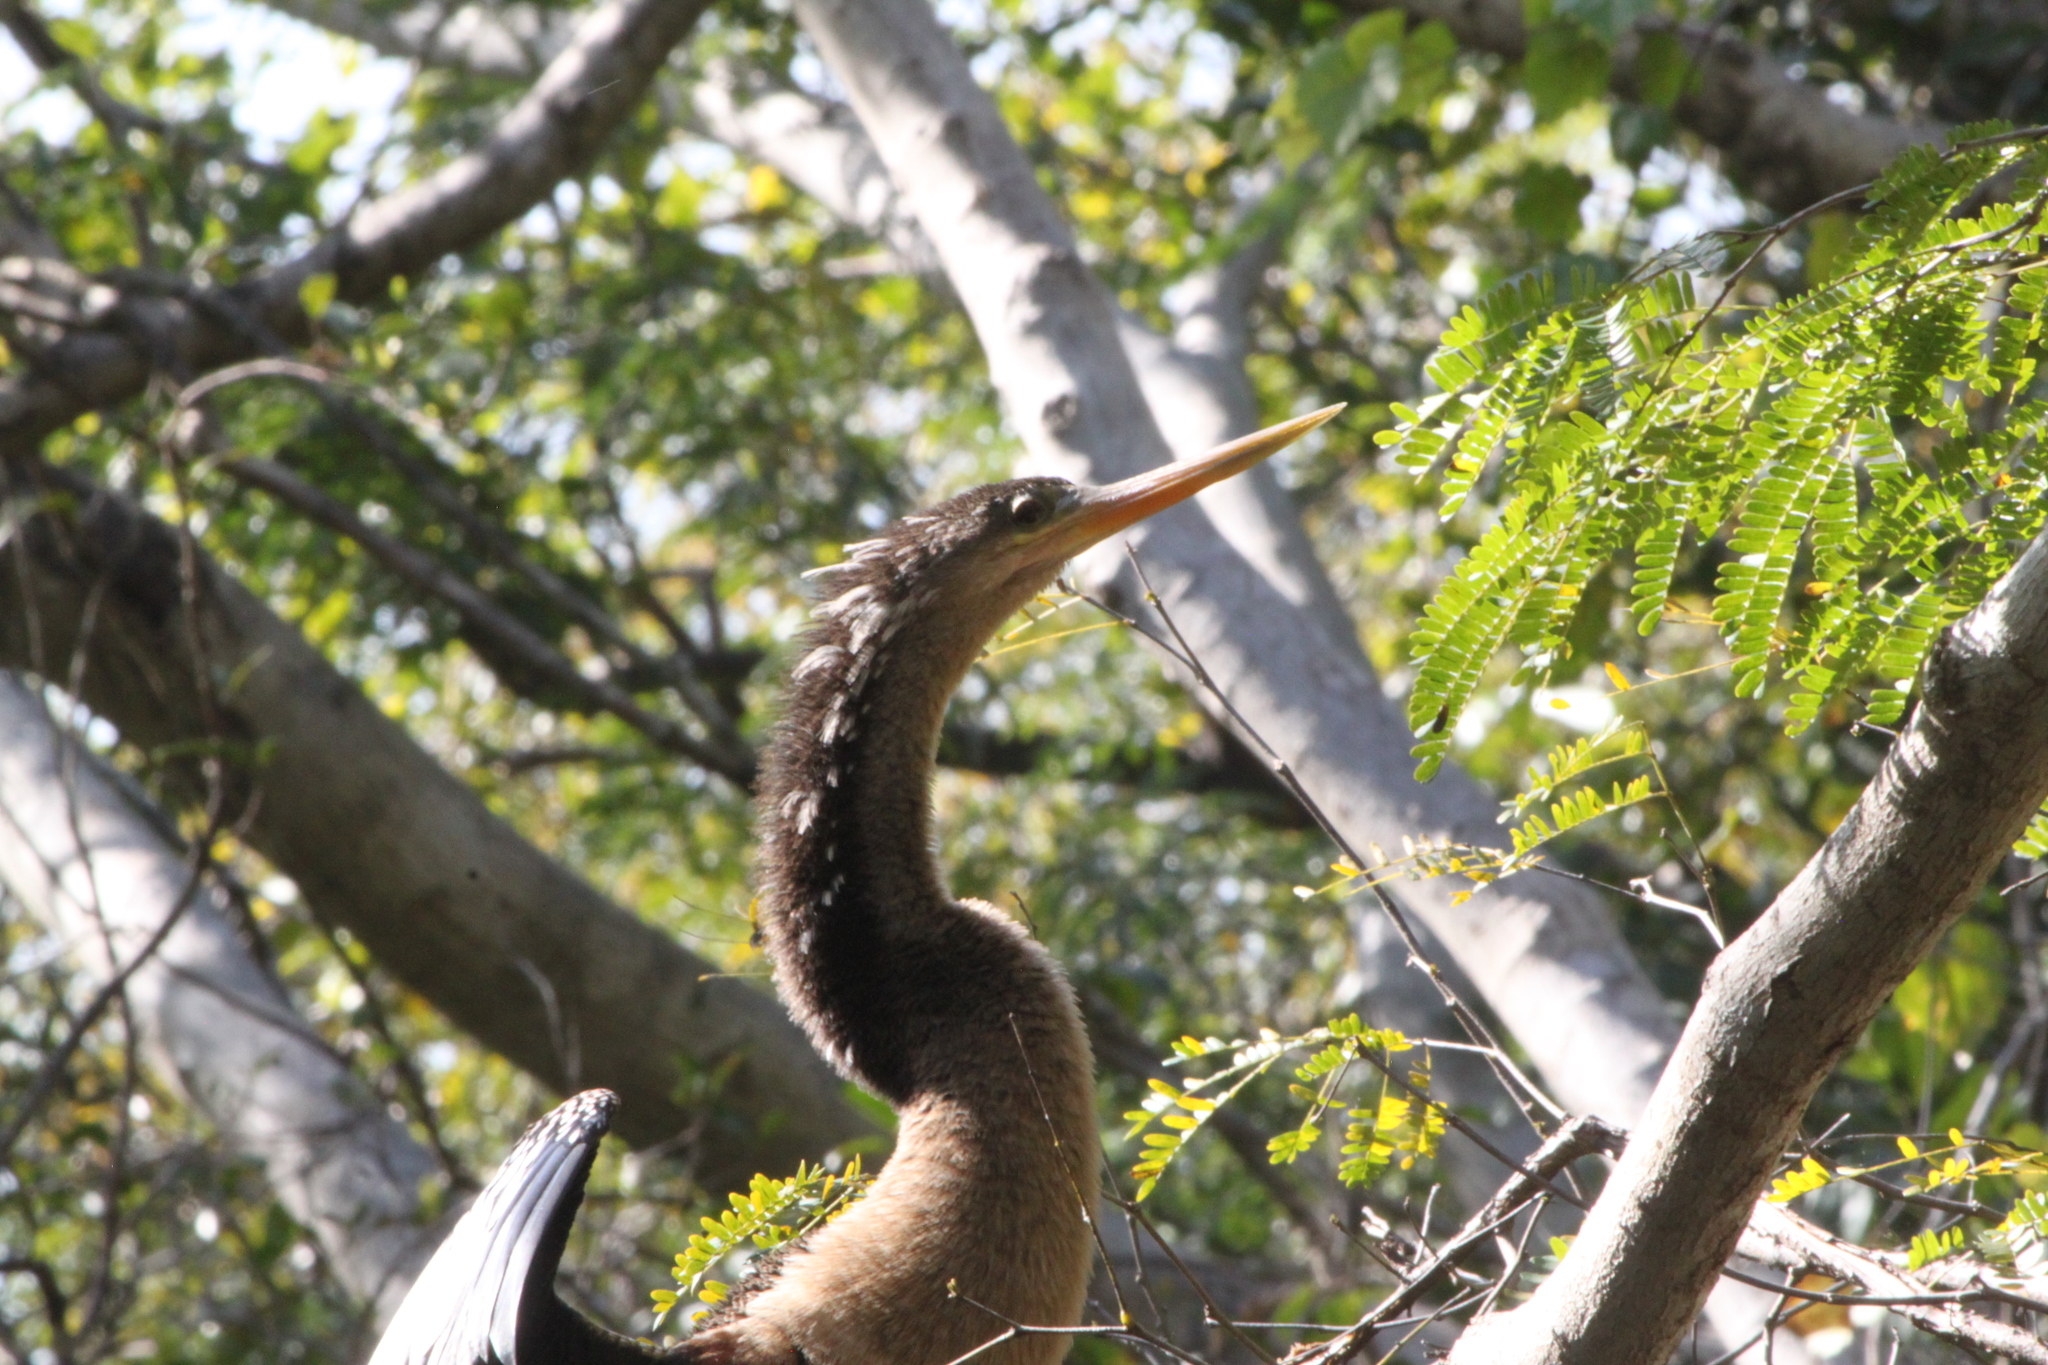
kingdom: Animalia
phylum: Chordata
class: Aves
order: Suliformes
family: Anhingidae
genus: Anhinga
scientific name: Anhinga anhinga
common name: Anhinga
